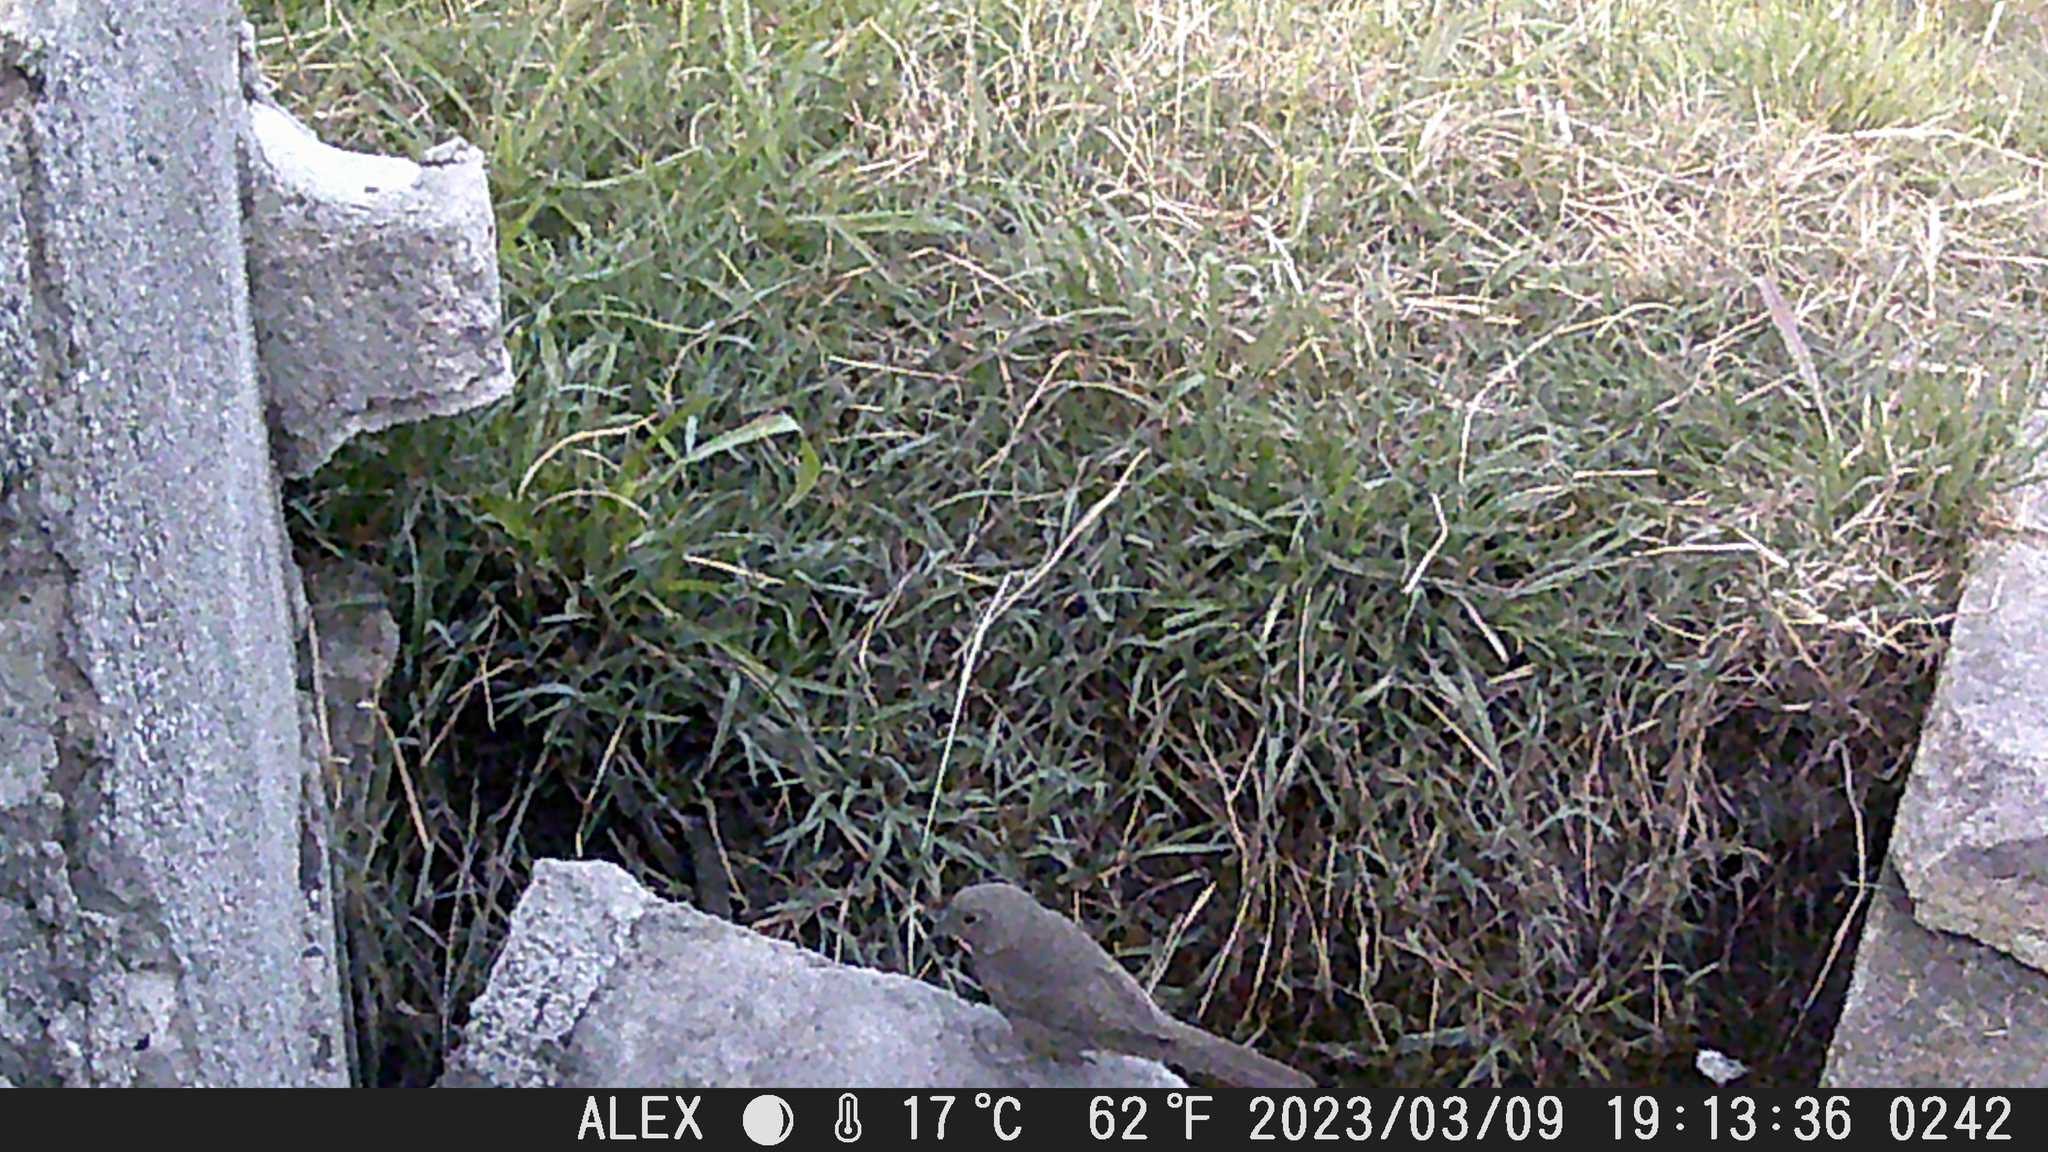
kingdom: Animalia
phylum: Chordata
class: Aves
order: Passeriformes
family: Passerellidae
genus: Melozone
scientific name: Melozone fusca
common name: Canyon towhee
